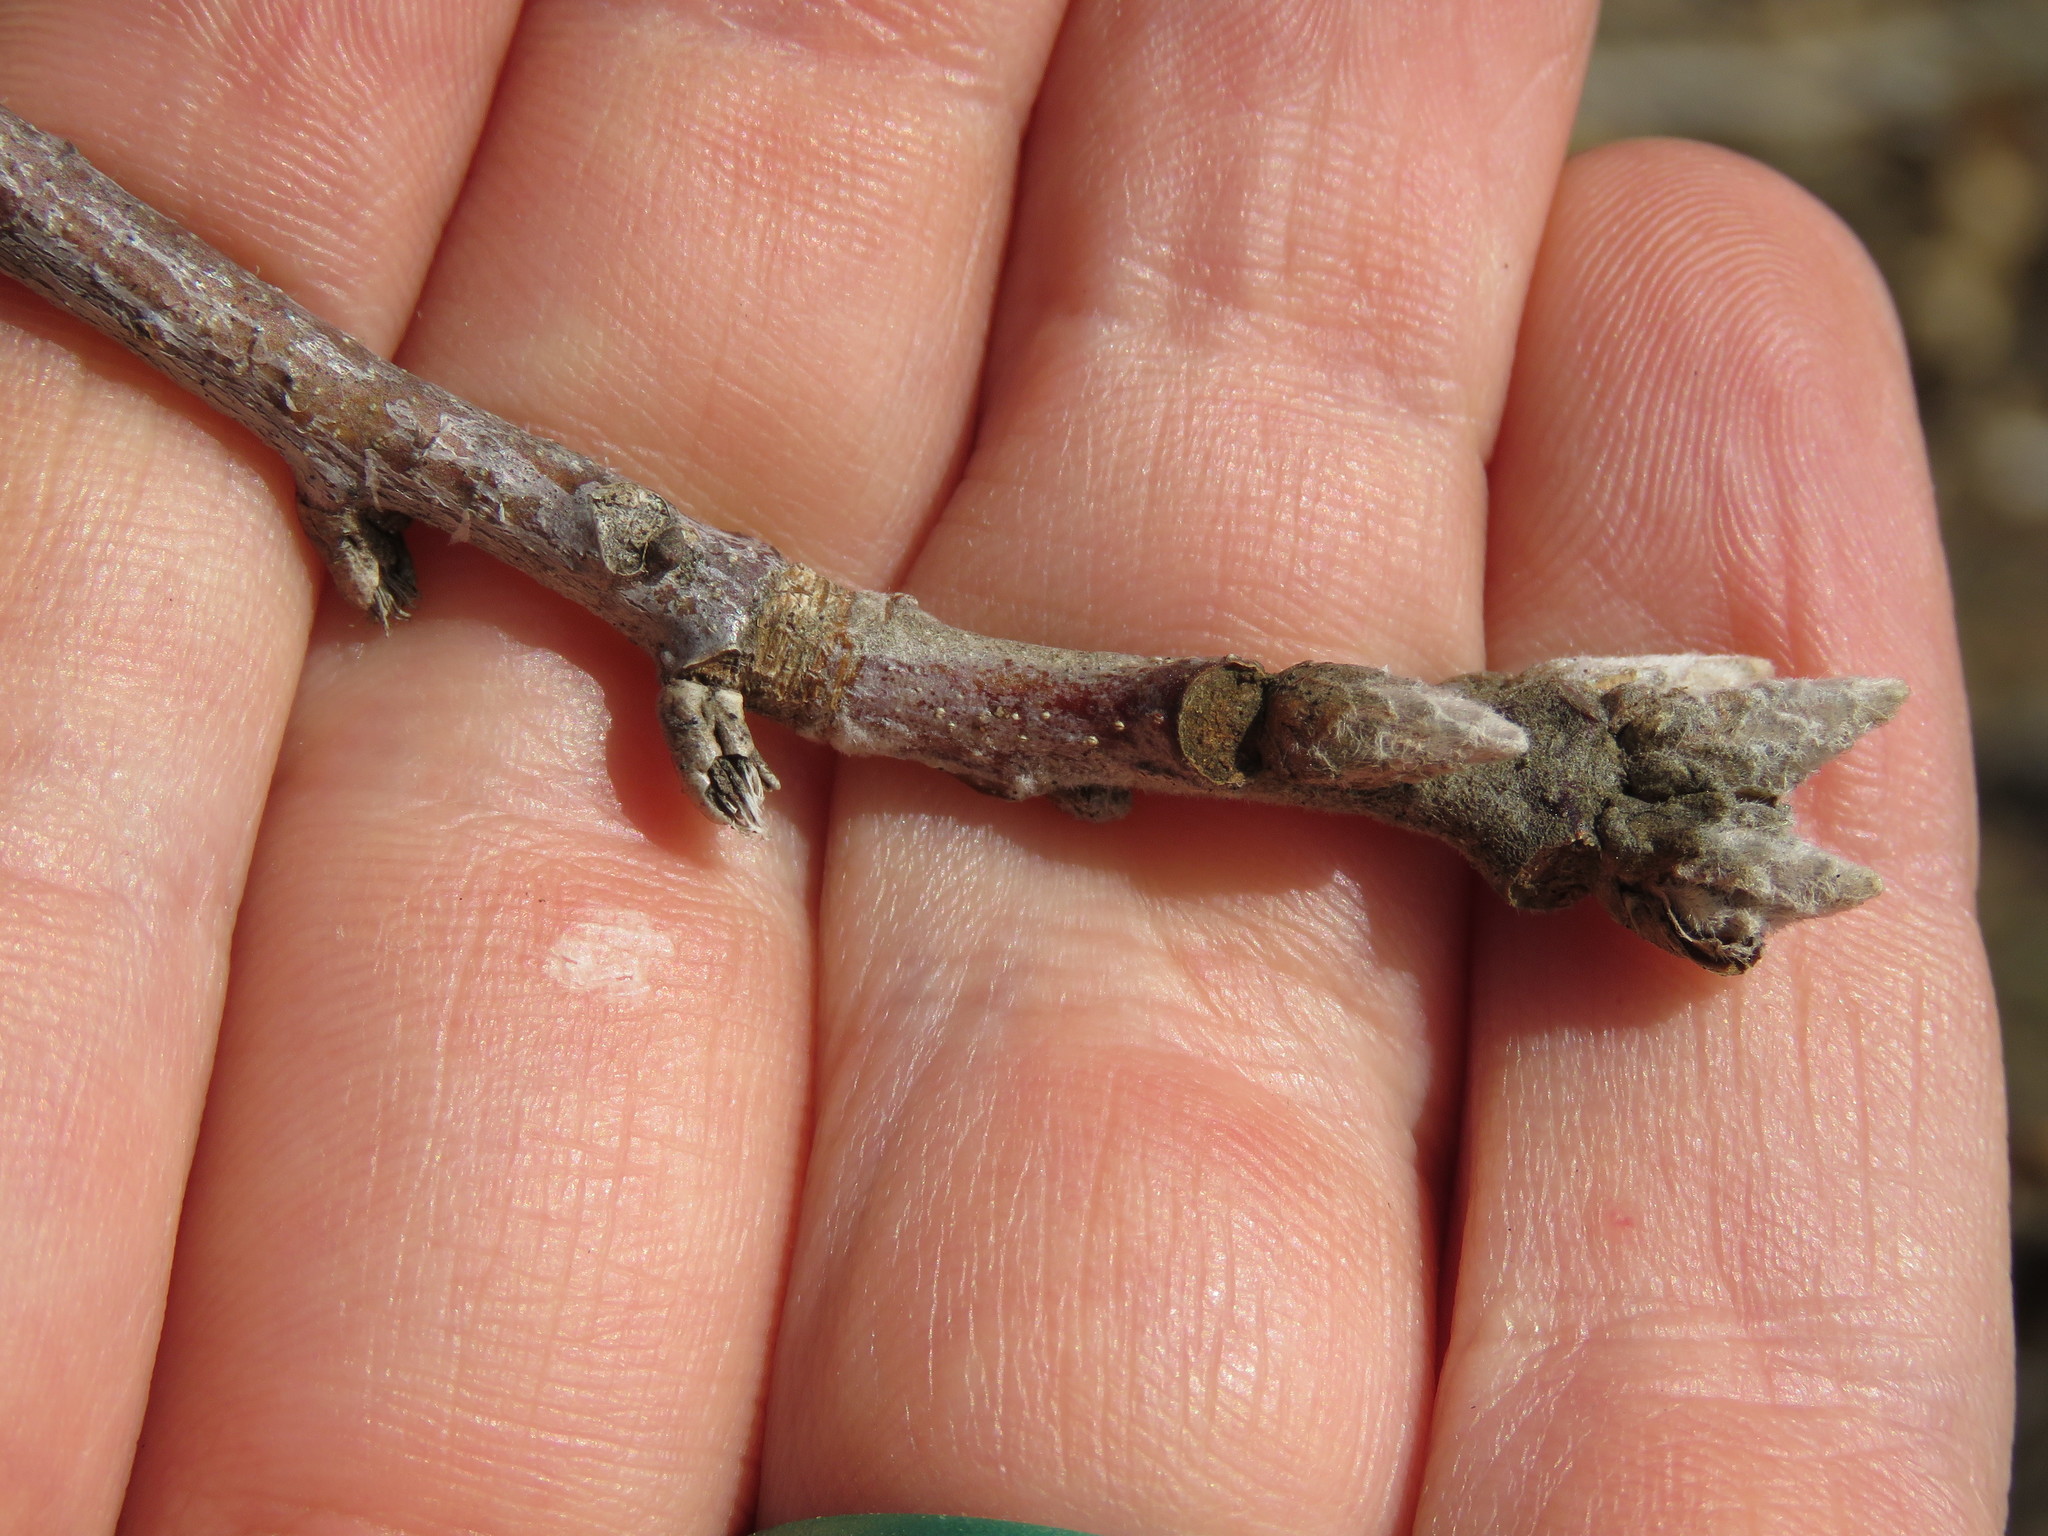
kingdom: Plantae
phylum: Tracheophyta
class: Magnoliopsida
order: Fagales
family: Fagaceae
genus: Quercus
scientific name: Quercus velutina
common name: Black oak
